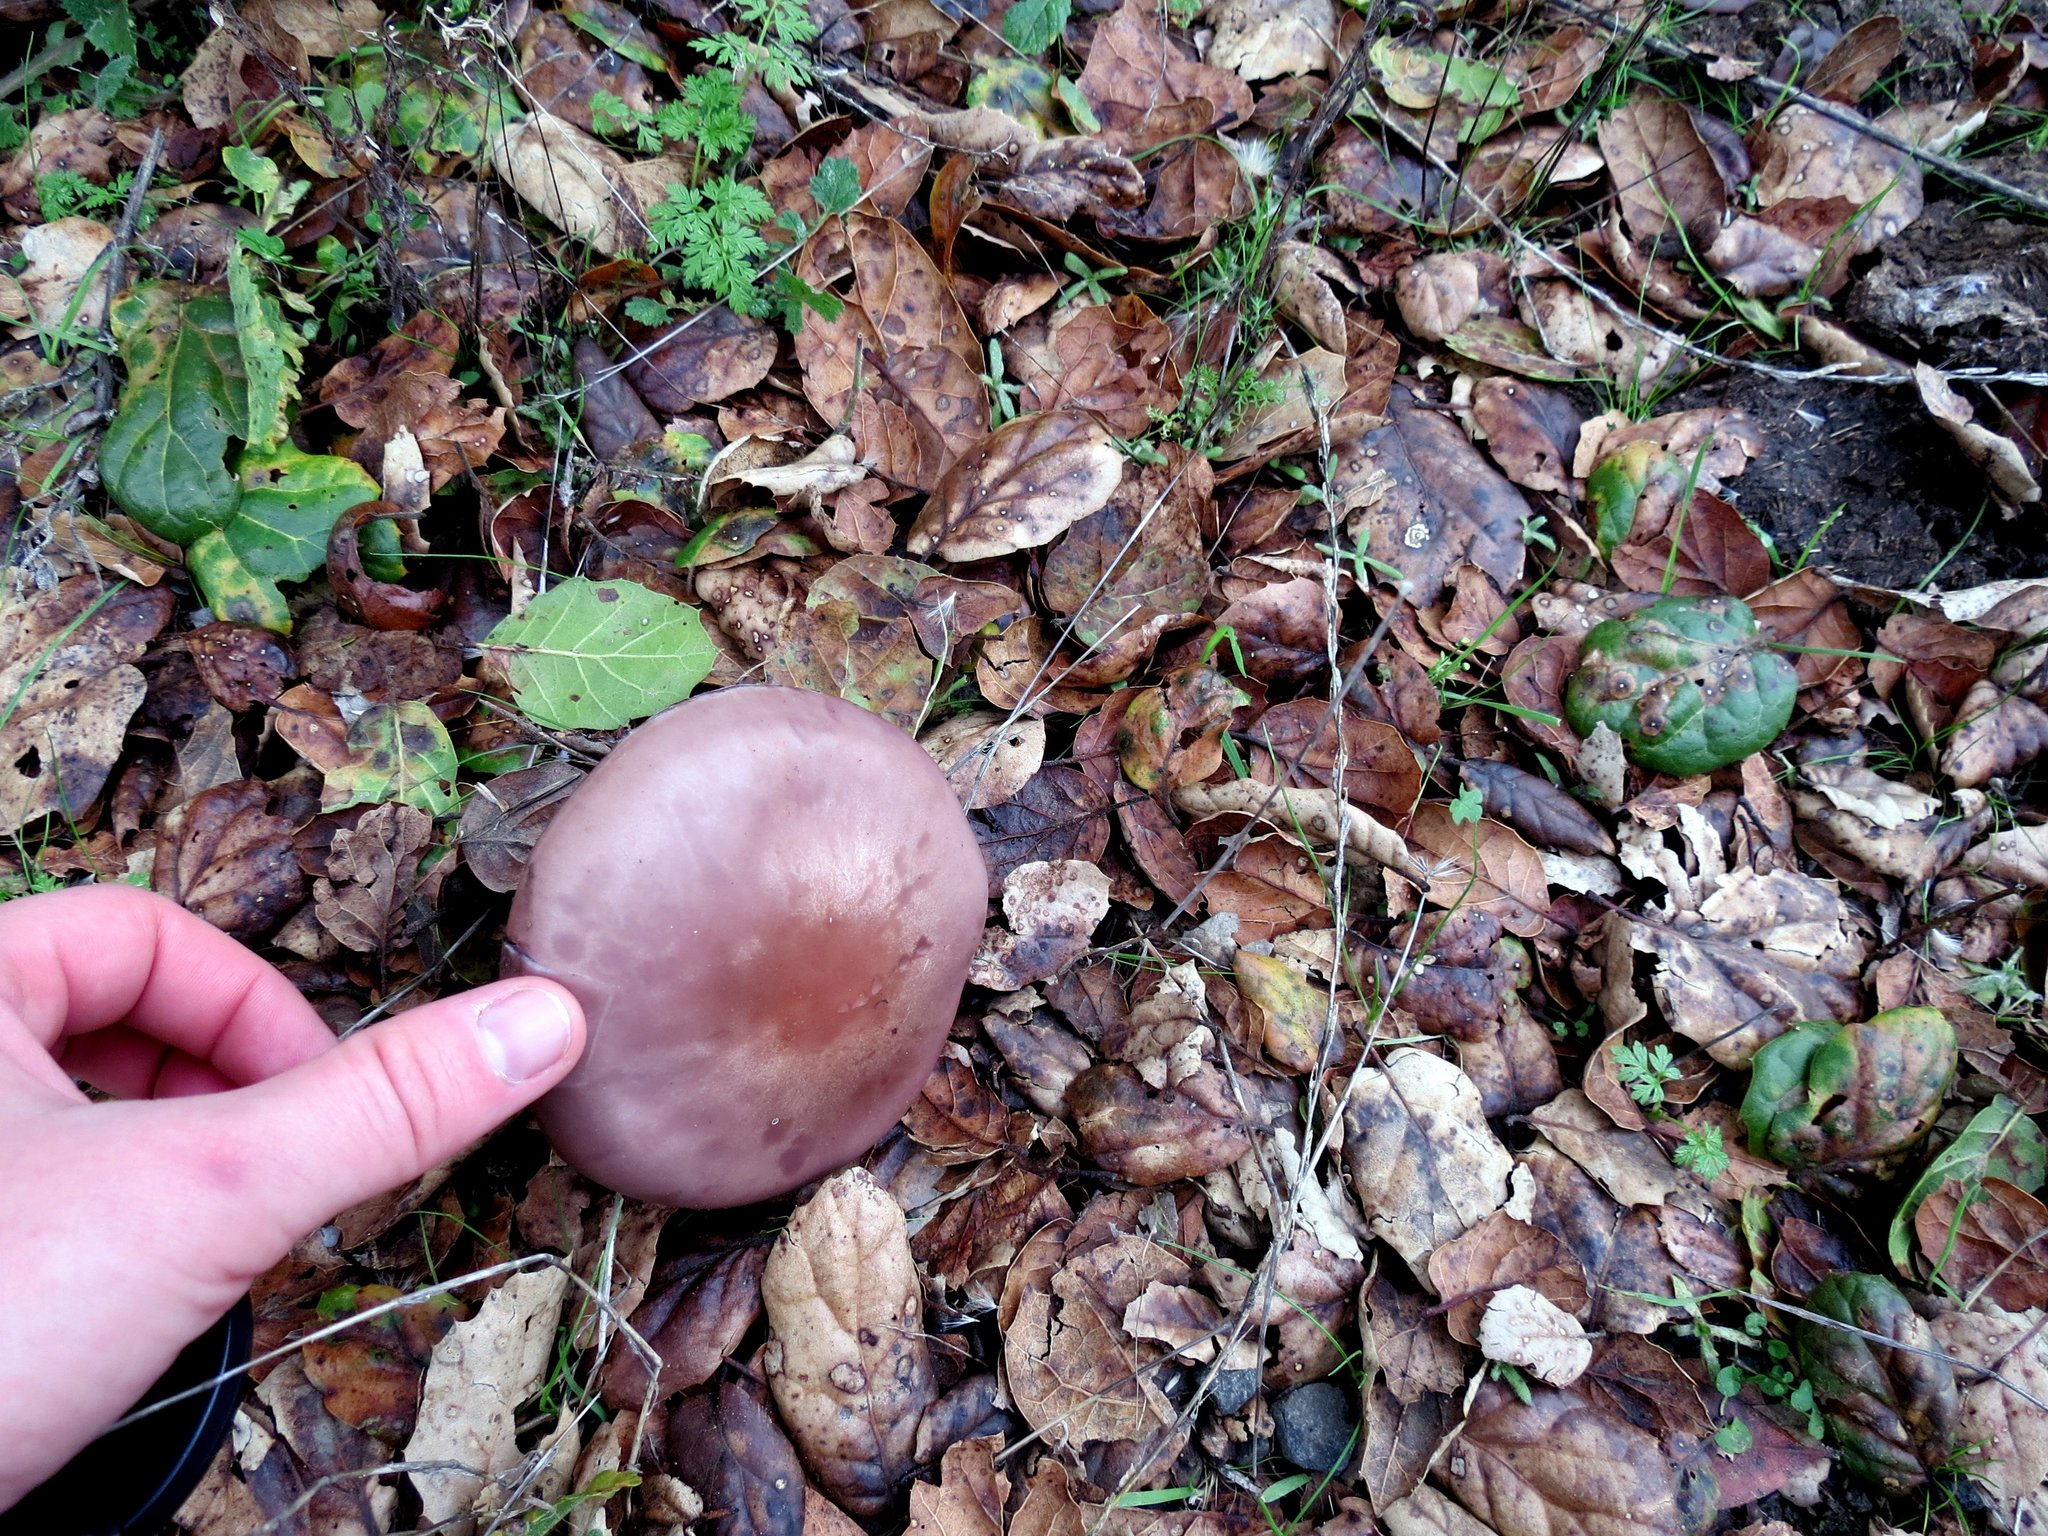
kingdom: Fungi
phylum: Basidiomycota
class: Agaricomycetes
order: Agaricales
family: Tricholomataceae
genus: Collybia
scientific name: Collybia
